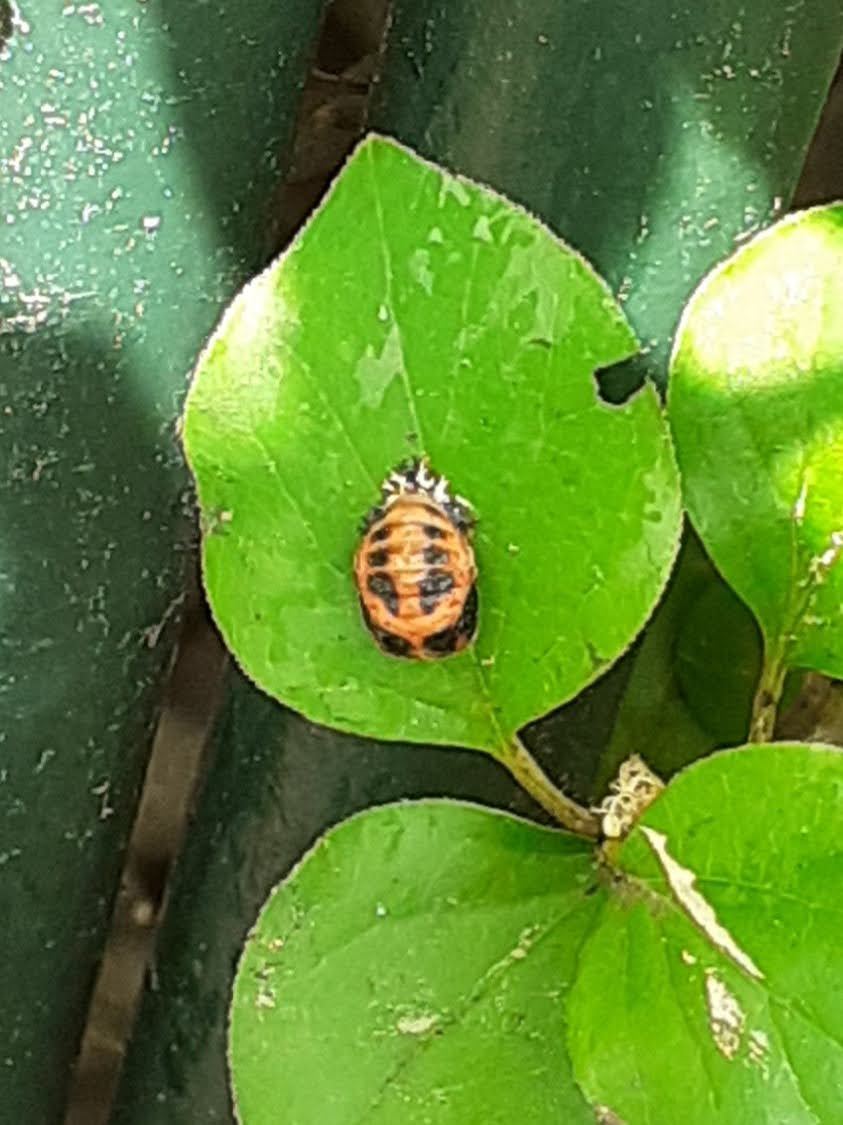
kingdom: Animalia
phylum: Arthropoda
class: Insecta
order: Coleoptera
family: Coccinellidae
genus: Harmonia
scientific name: Harmonia axyridis
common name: Harlequin ladybird
